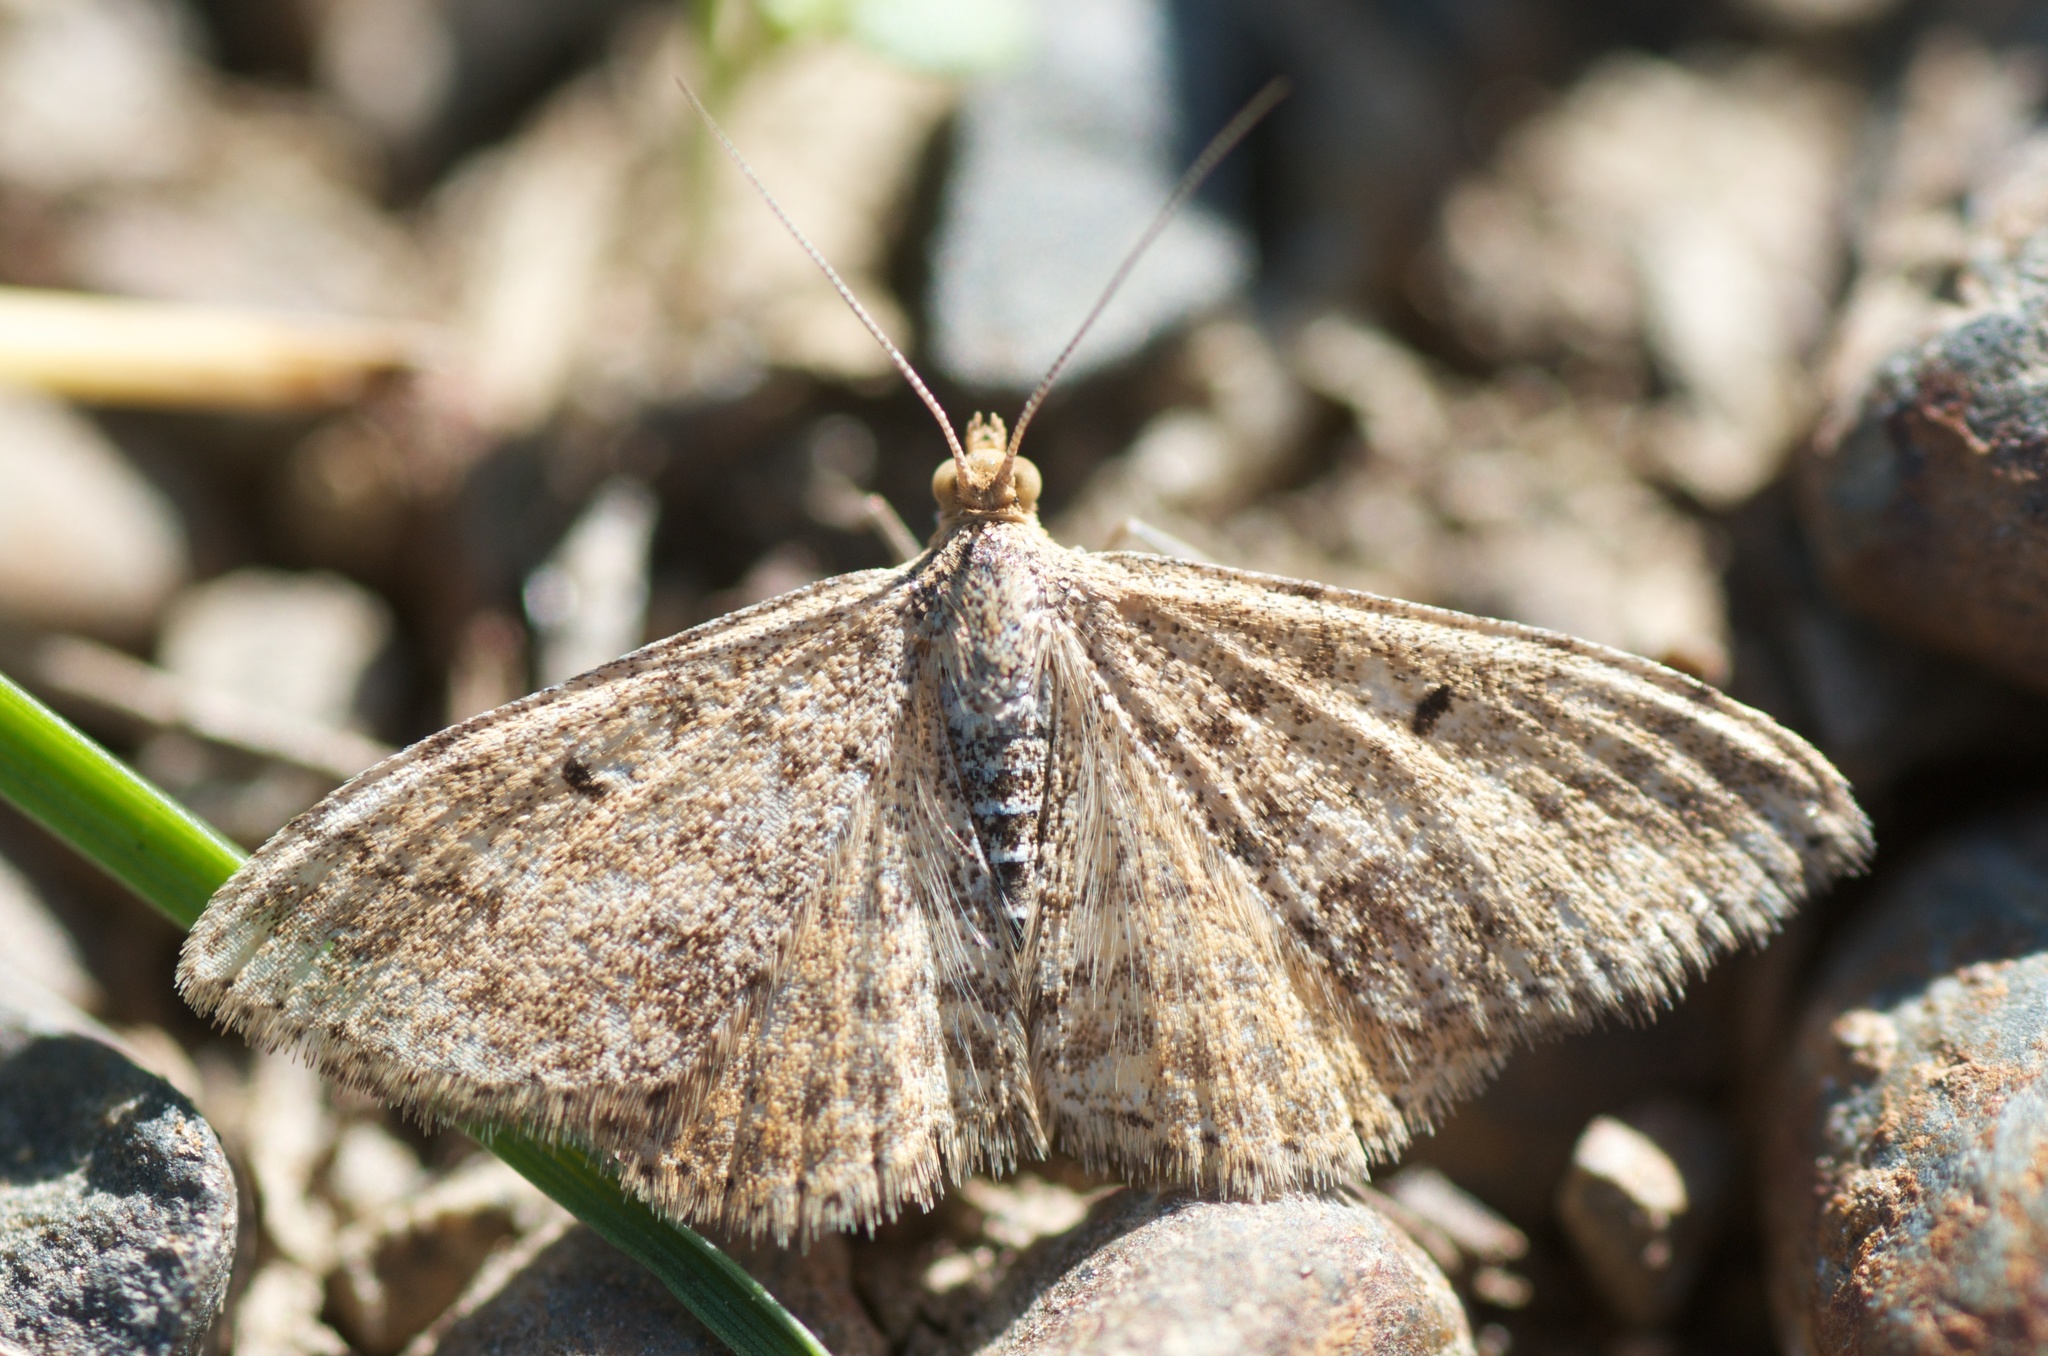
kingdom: Animalia
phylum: Arthropoda
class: Insecta
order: Lepidoptera
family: Geometridae
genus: Scopula
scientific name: Scopula rubraria
